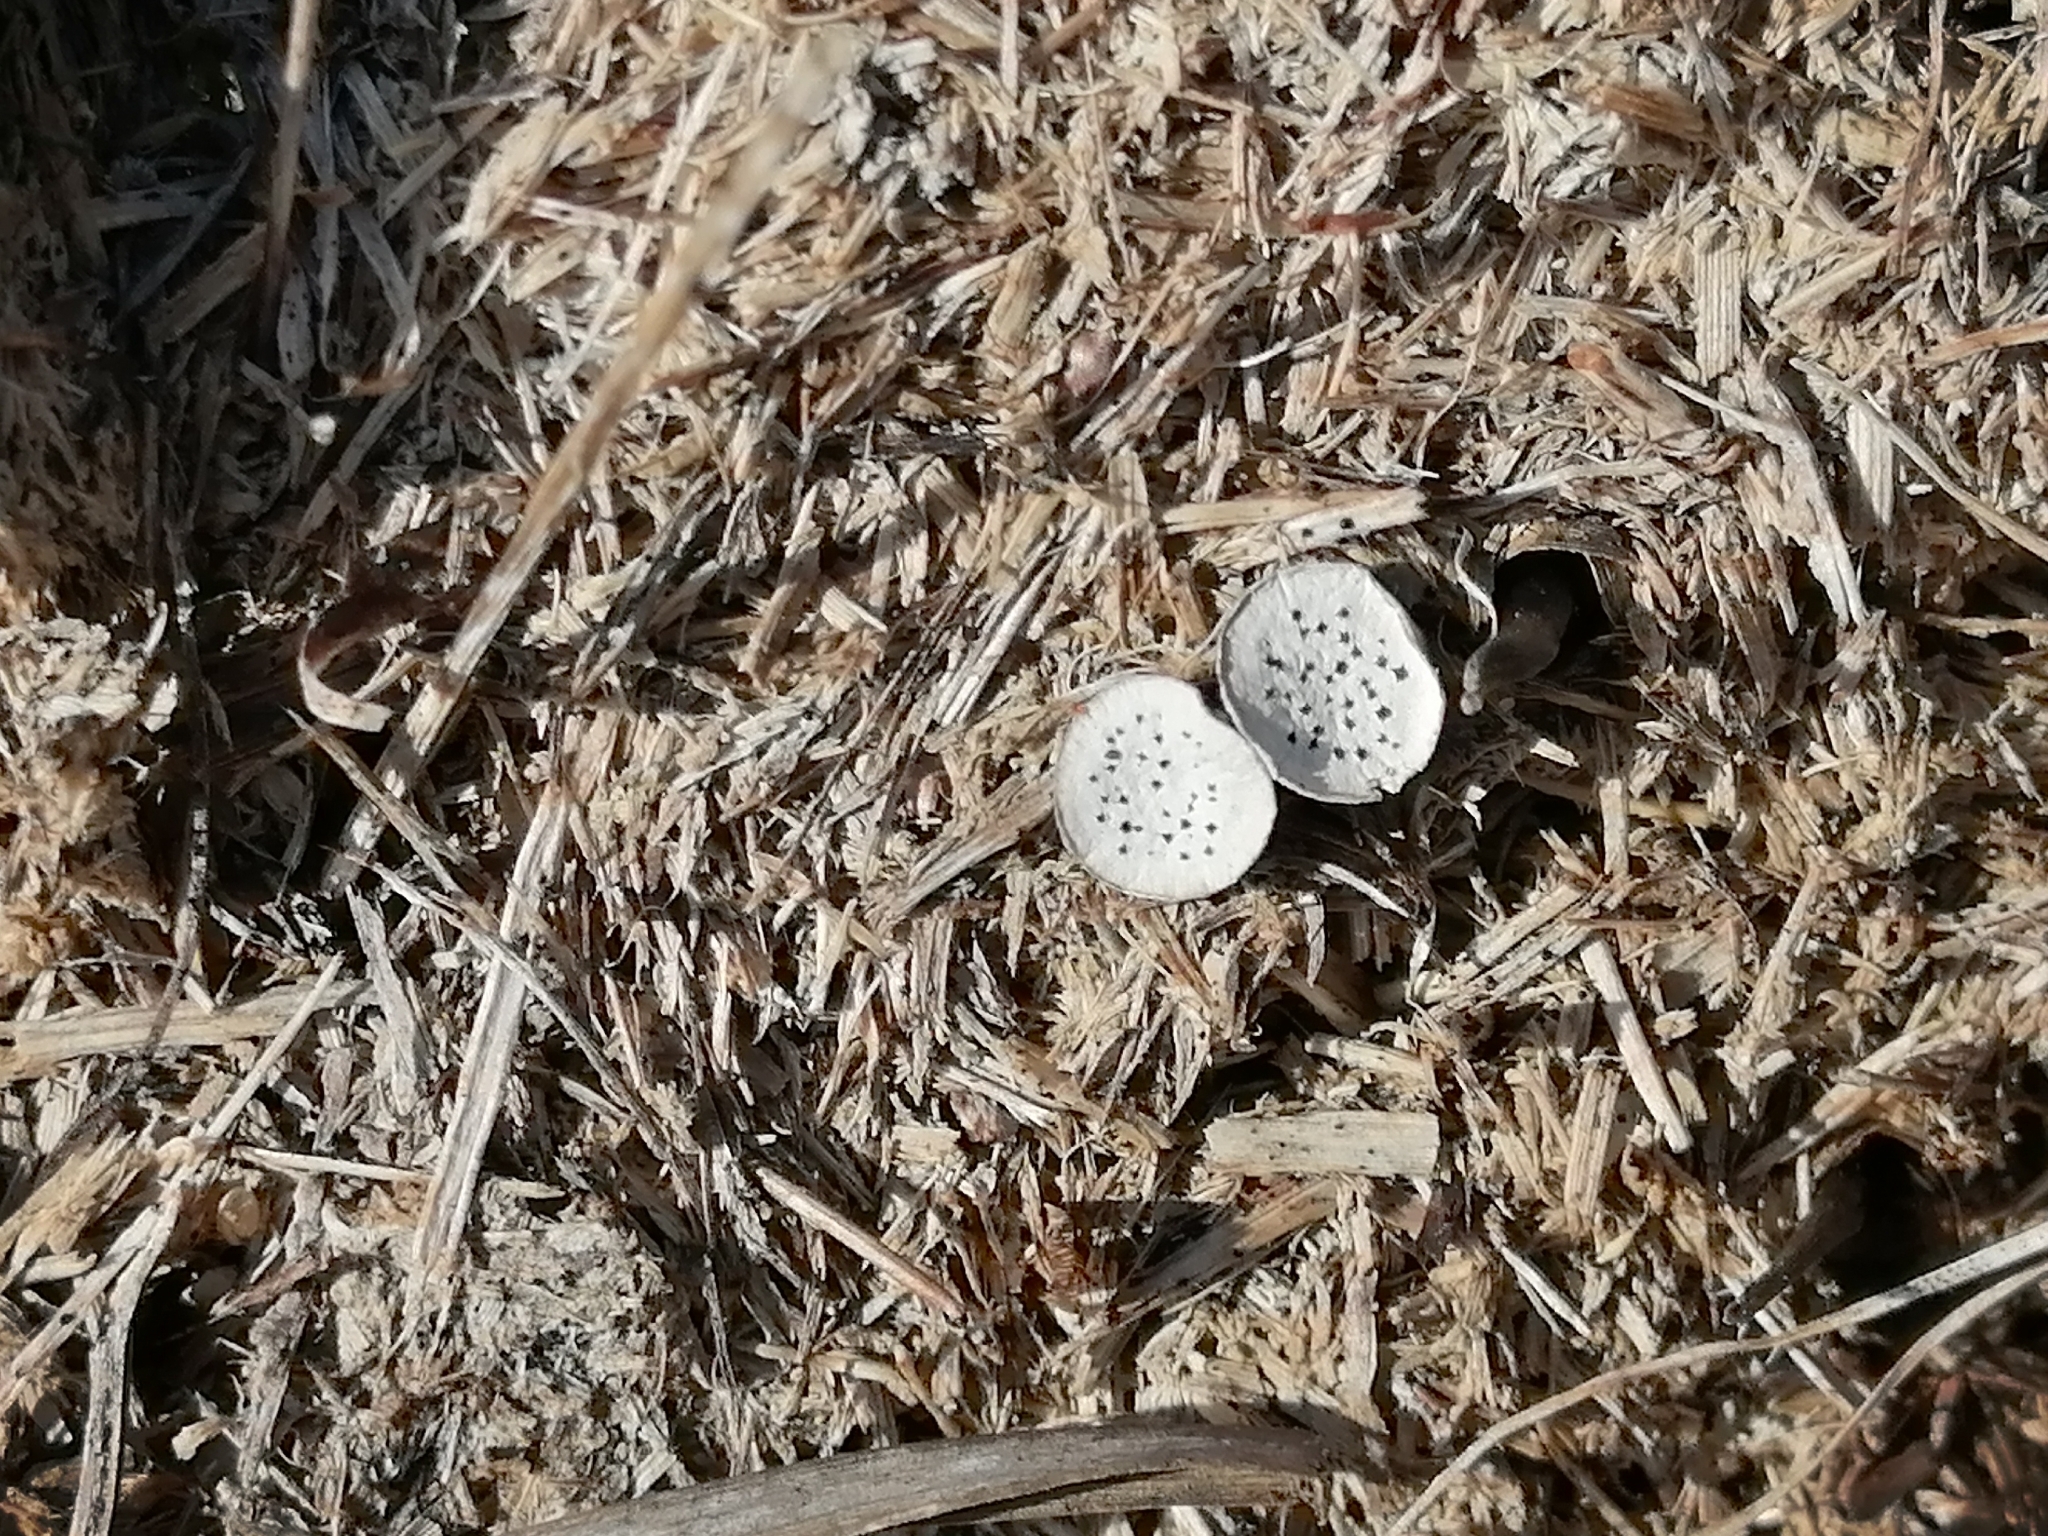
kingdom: Fungi
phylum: Ascomycota
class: Sordariomycetes
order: Xylariales
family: Xylariaceae
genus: Poronia
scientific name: Poronia punctata
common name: Nail fungus
